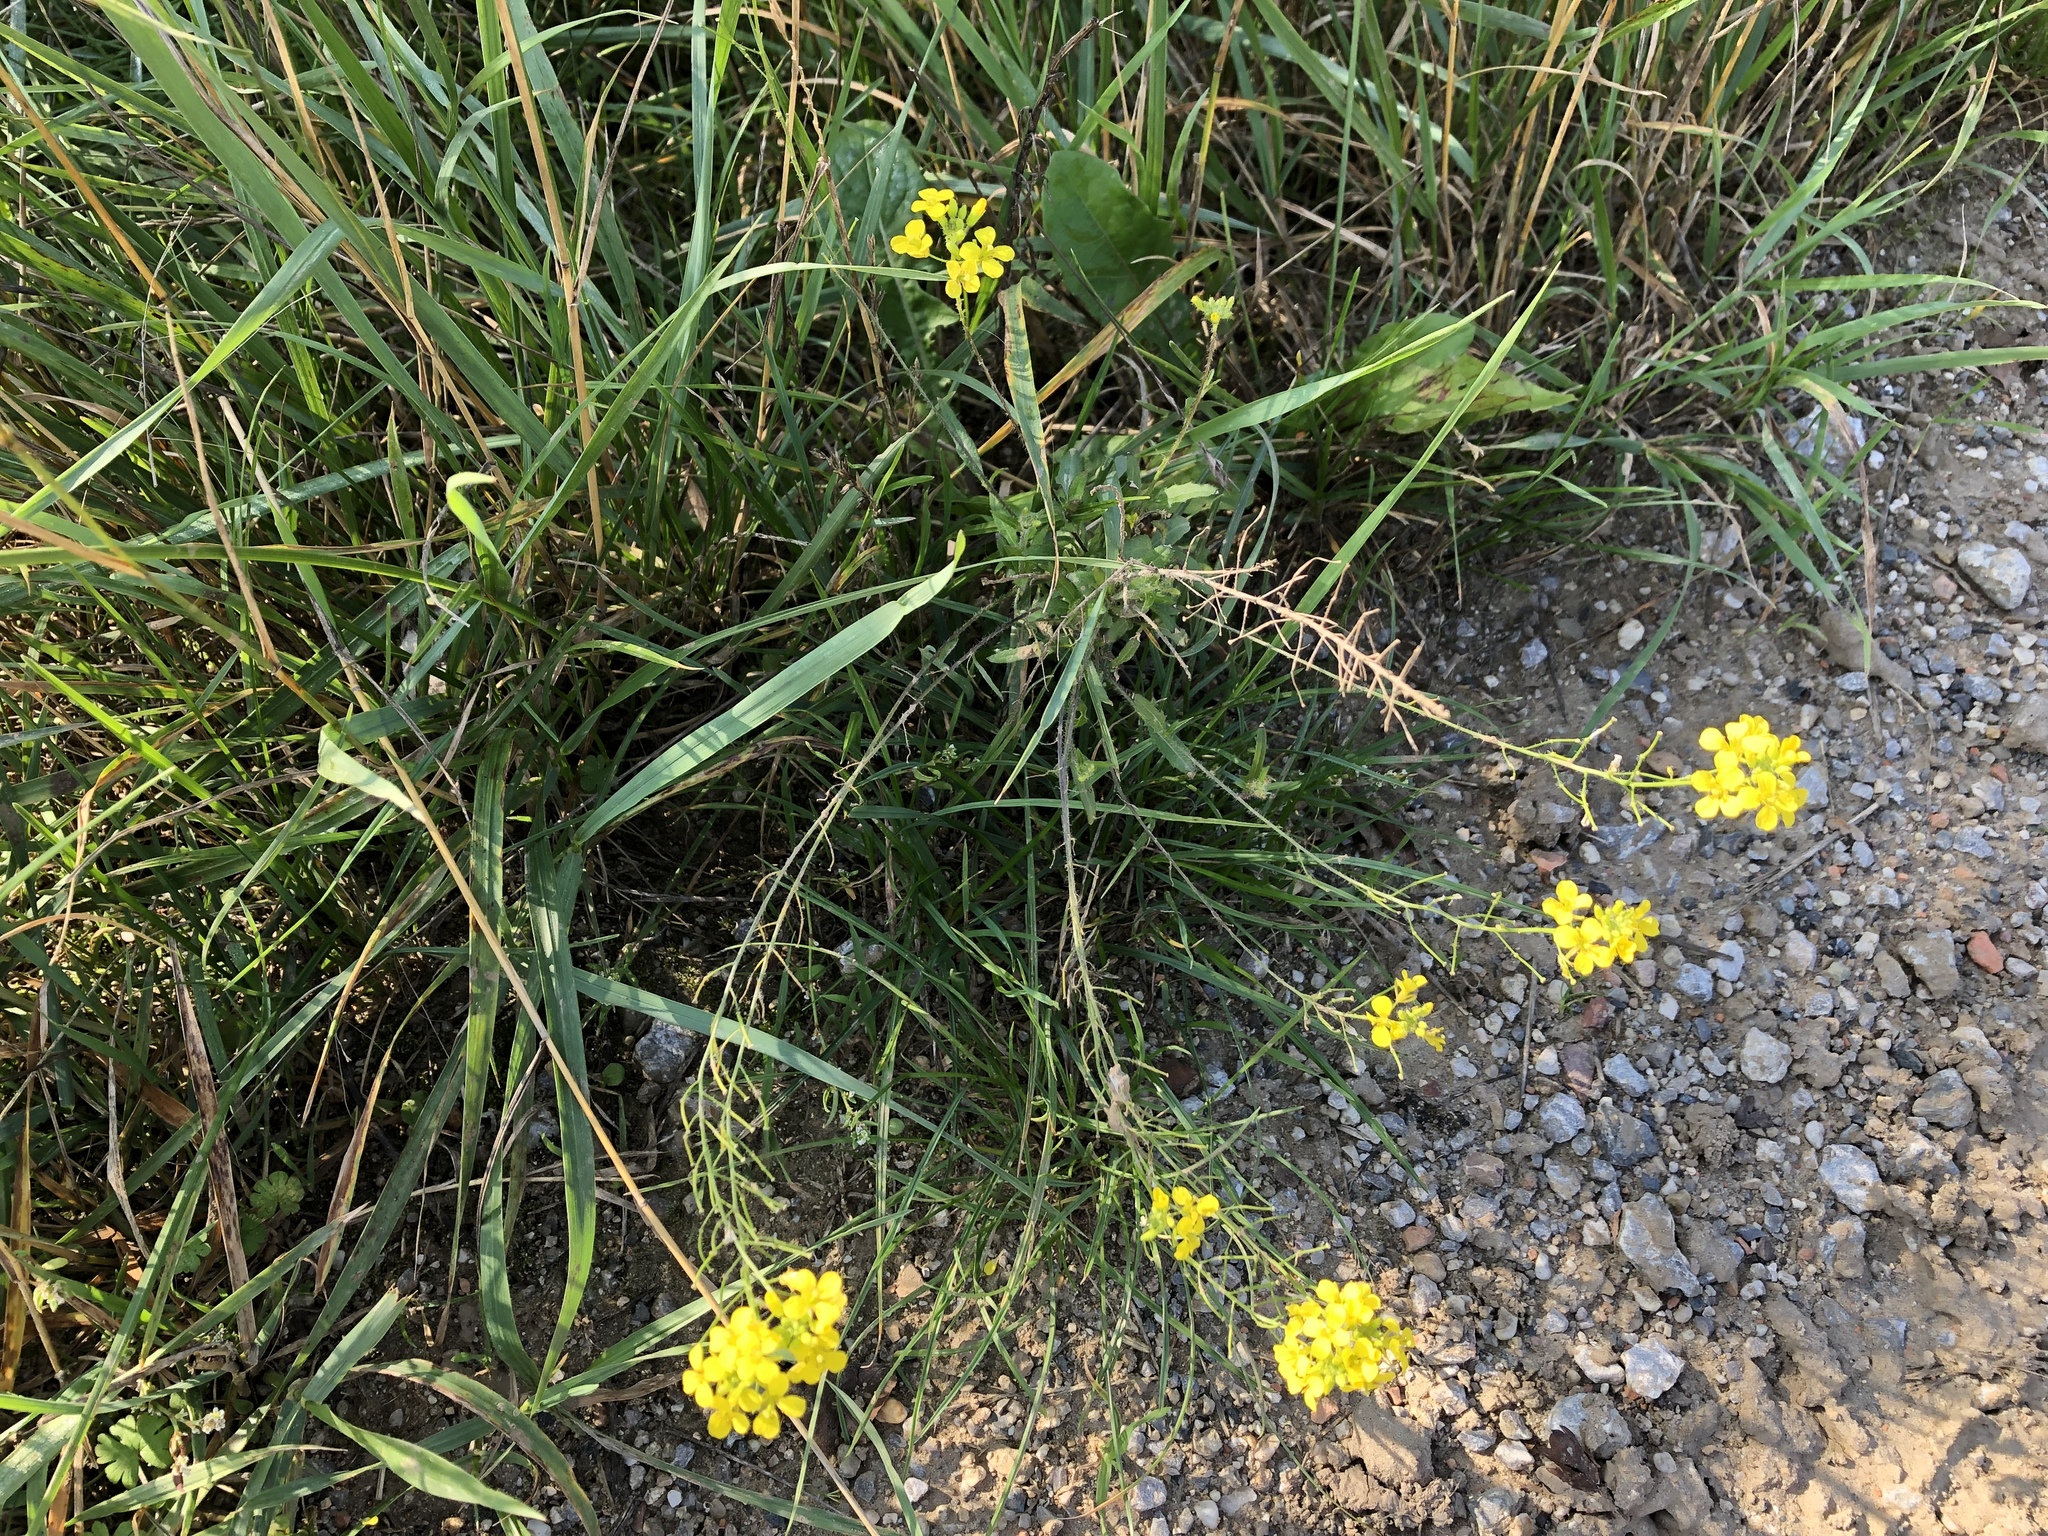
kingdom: Plantae
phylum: Tracheophyta
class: Magnoliopsida
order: Brassicales
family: Brassicaceae
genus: Sisymbrium
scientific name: Sisymbrium loeselii
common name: False london-rocket
